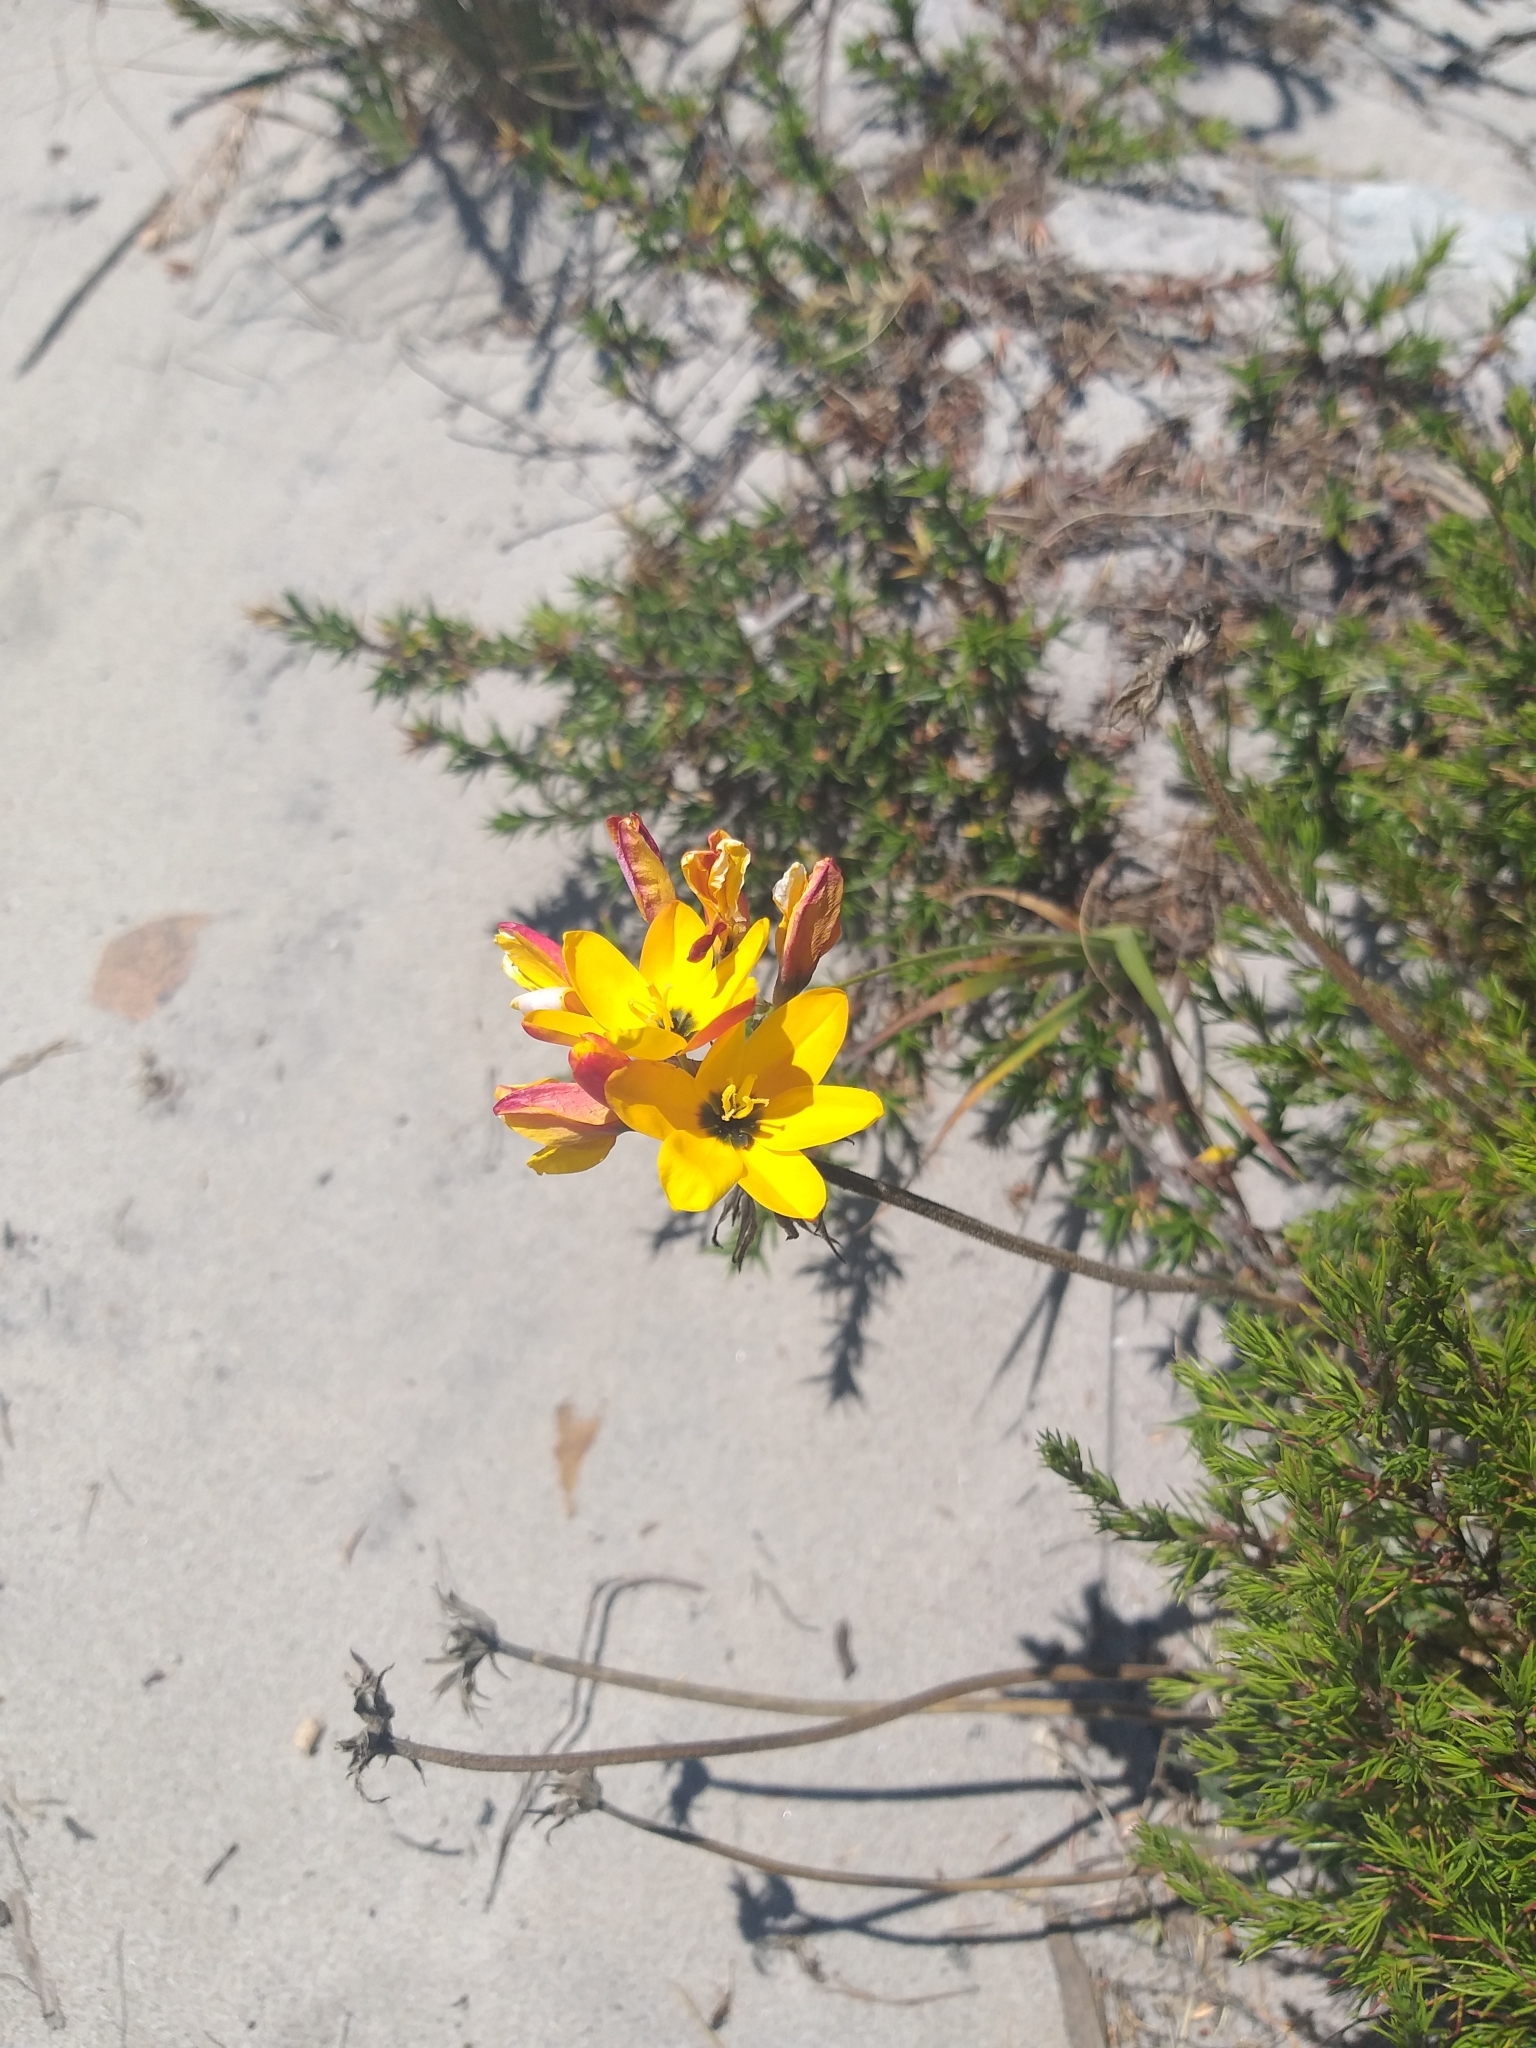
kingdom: Plantae
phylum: Tracheophyta
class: Liliopsida
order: Asparagales
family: Iridaceae
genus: Ixia
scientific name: Ixia dubia
